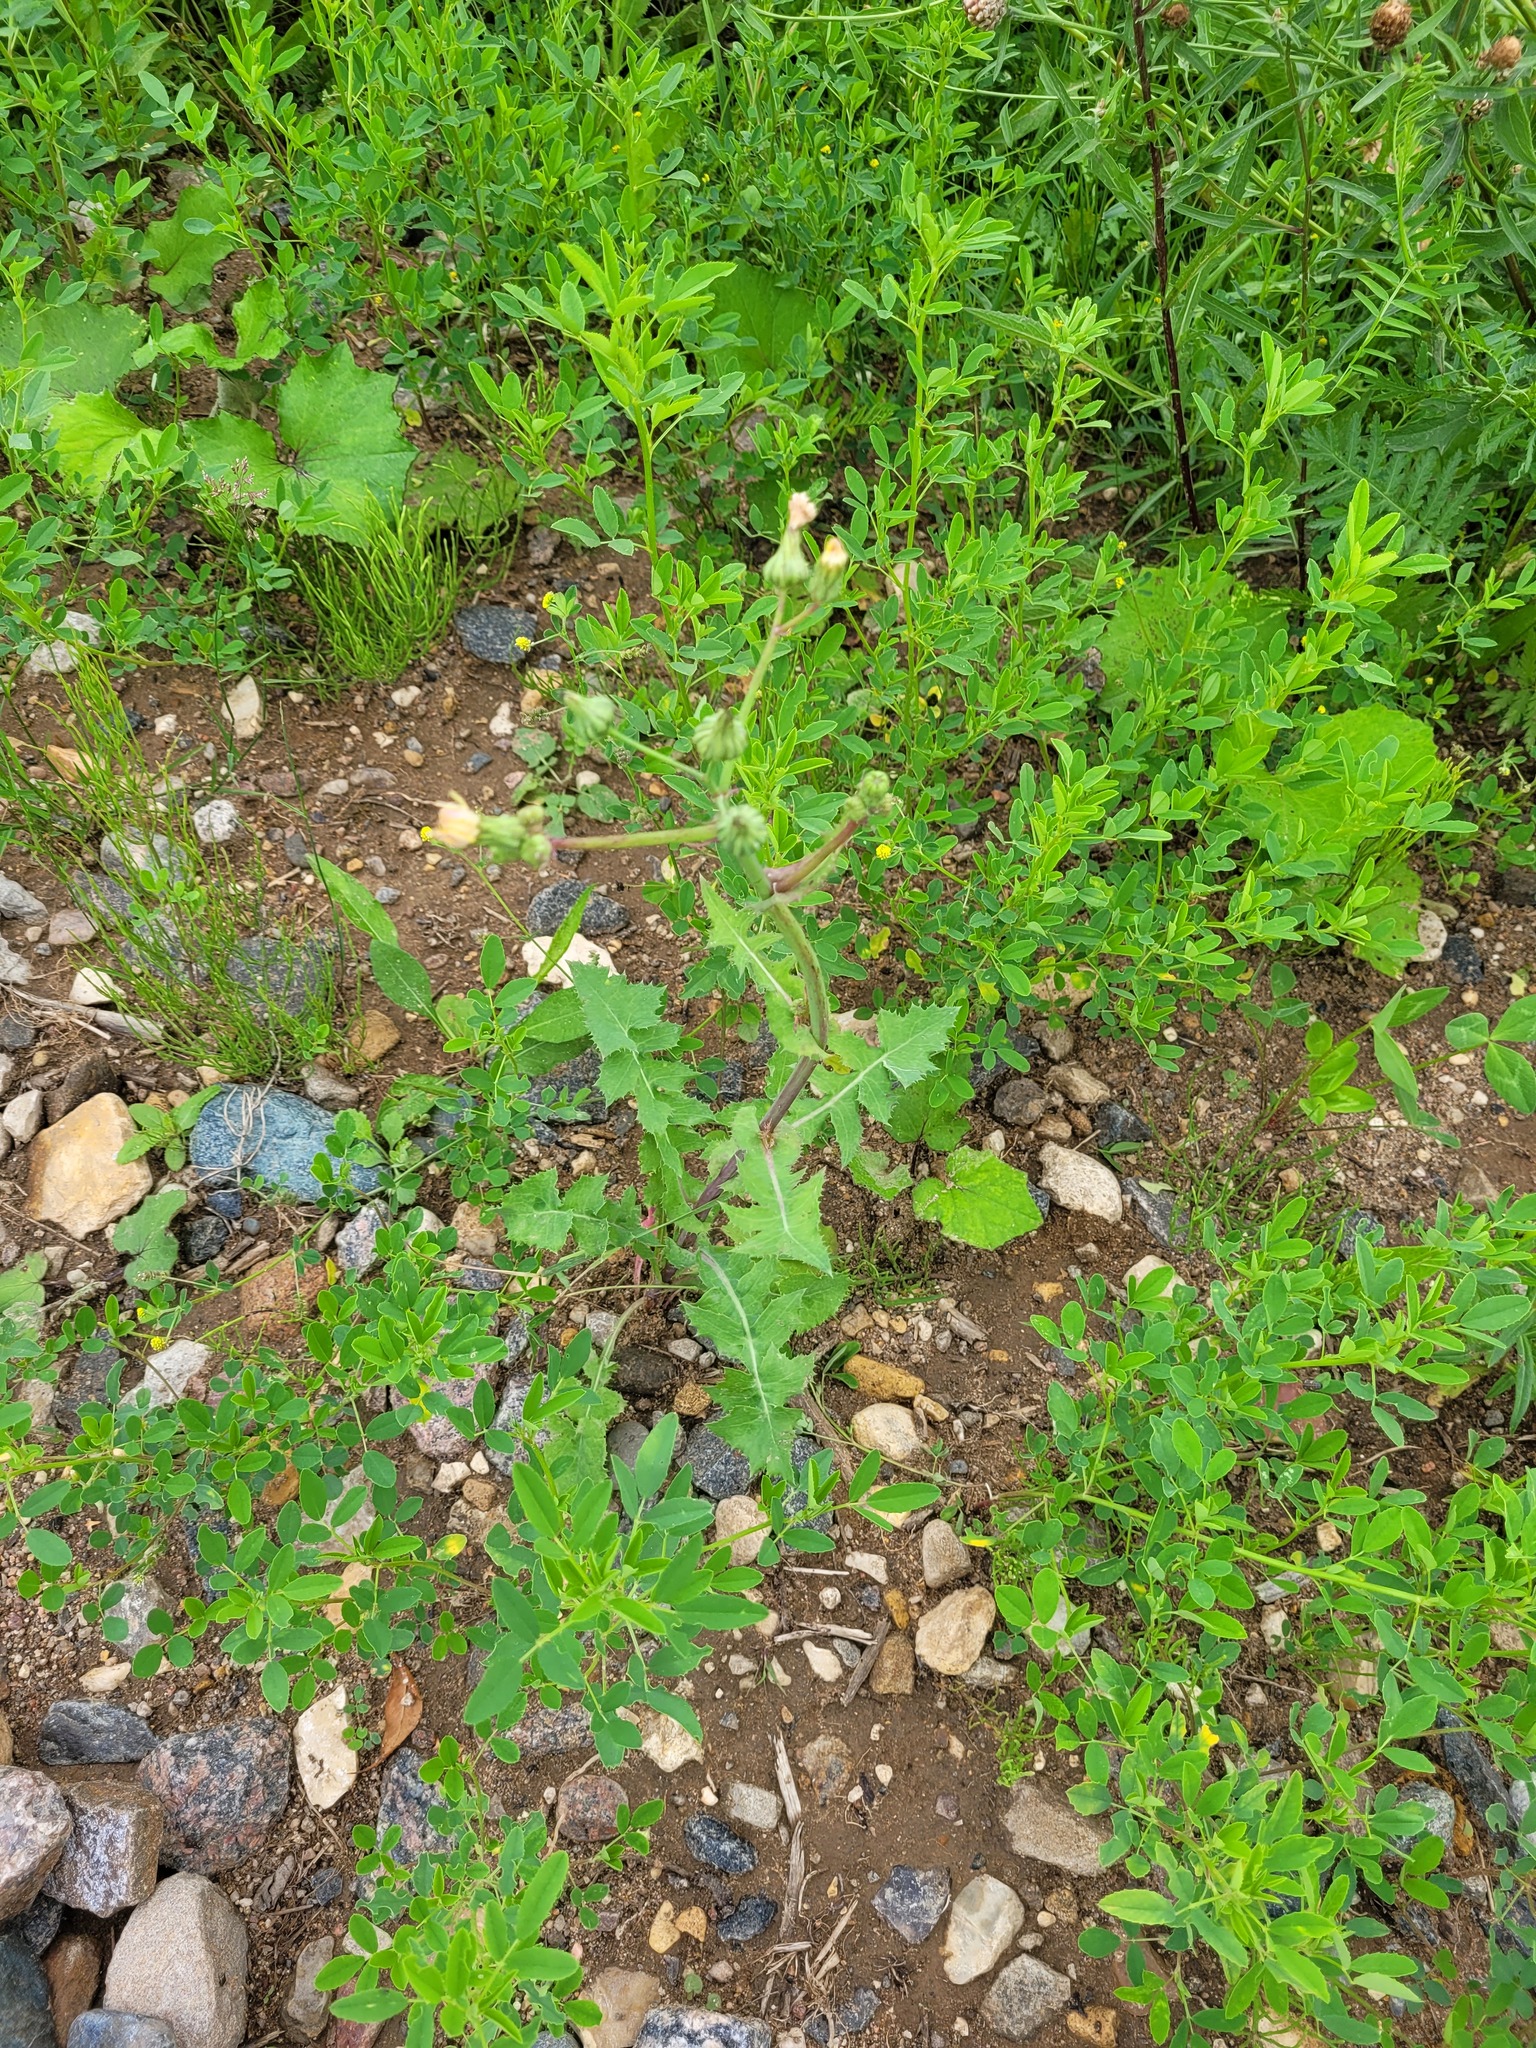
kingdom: Plantae
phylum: Tracheophyta
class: Magnoliopsida
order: Asterales
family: Asteraceae
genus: Sonchus
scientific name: Sonchus oleraceus
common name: Common sowthistle
